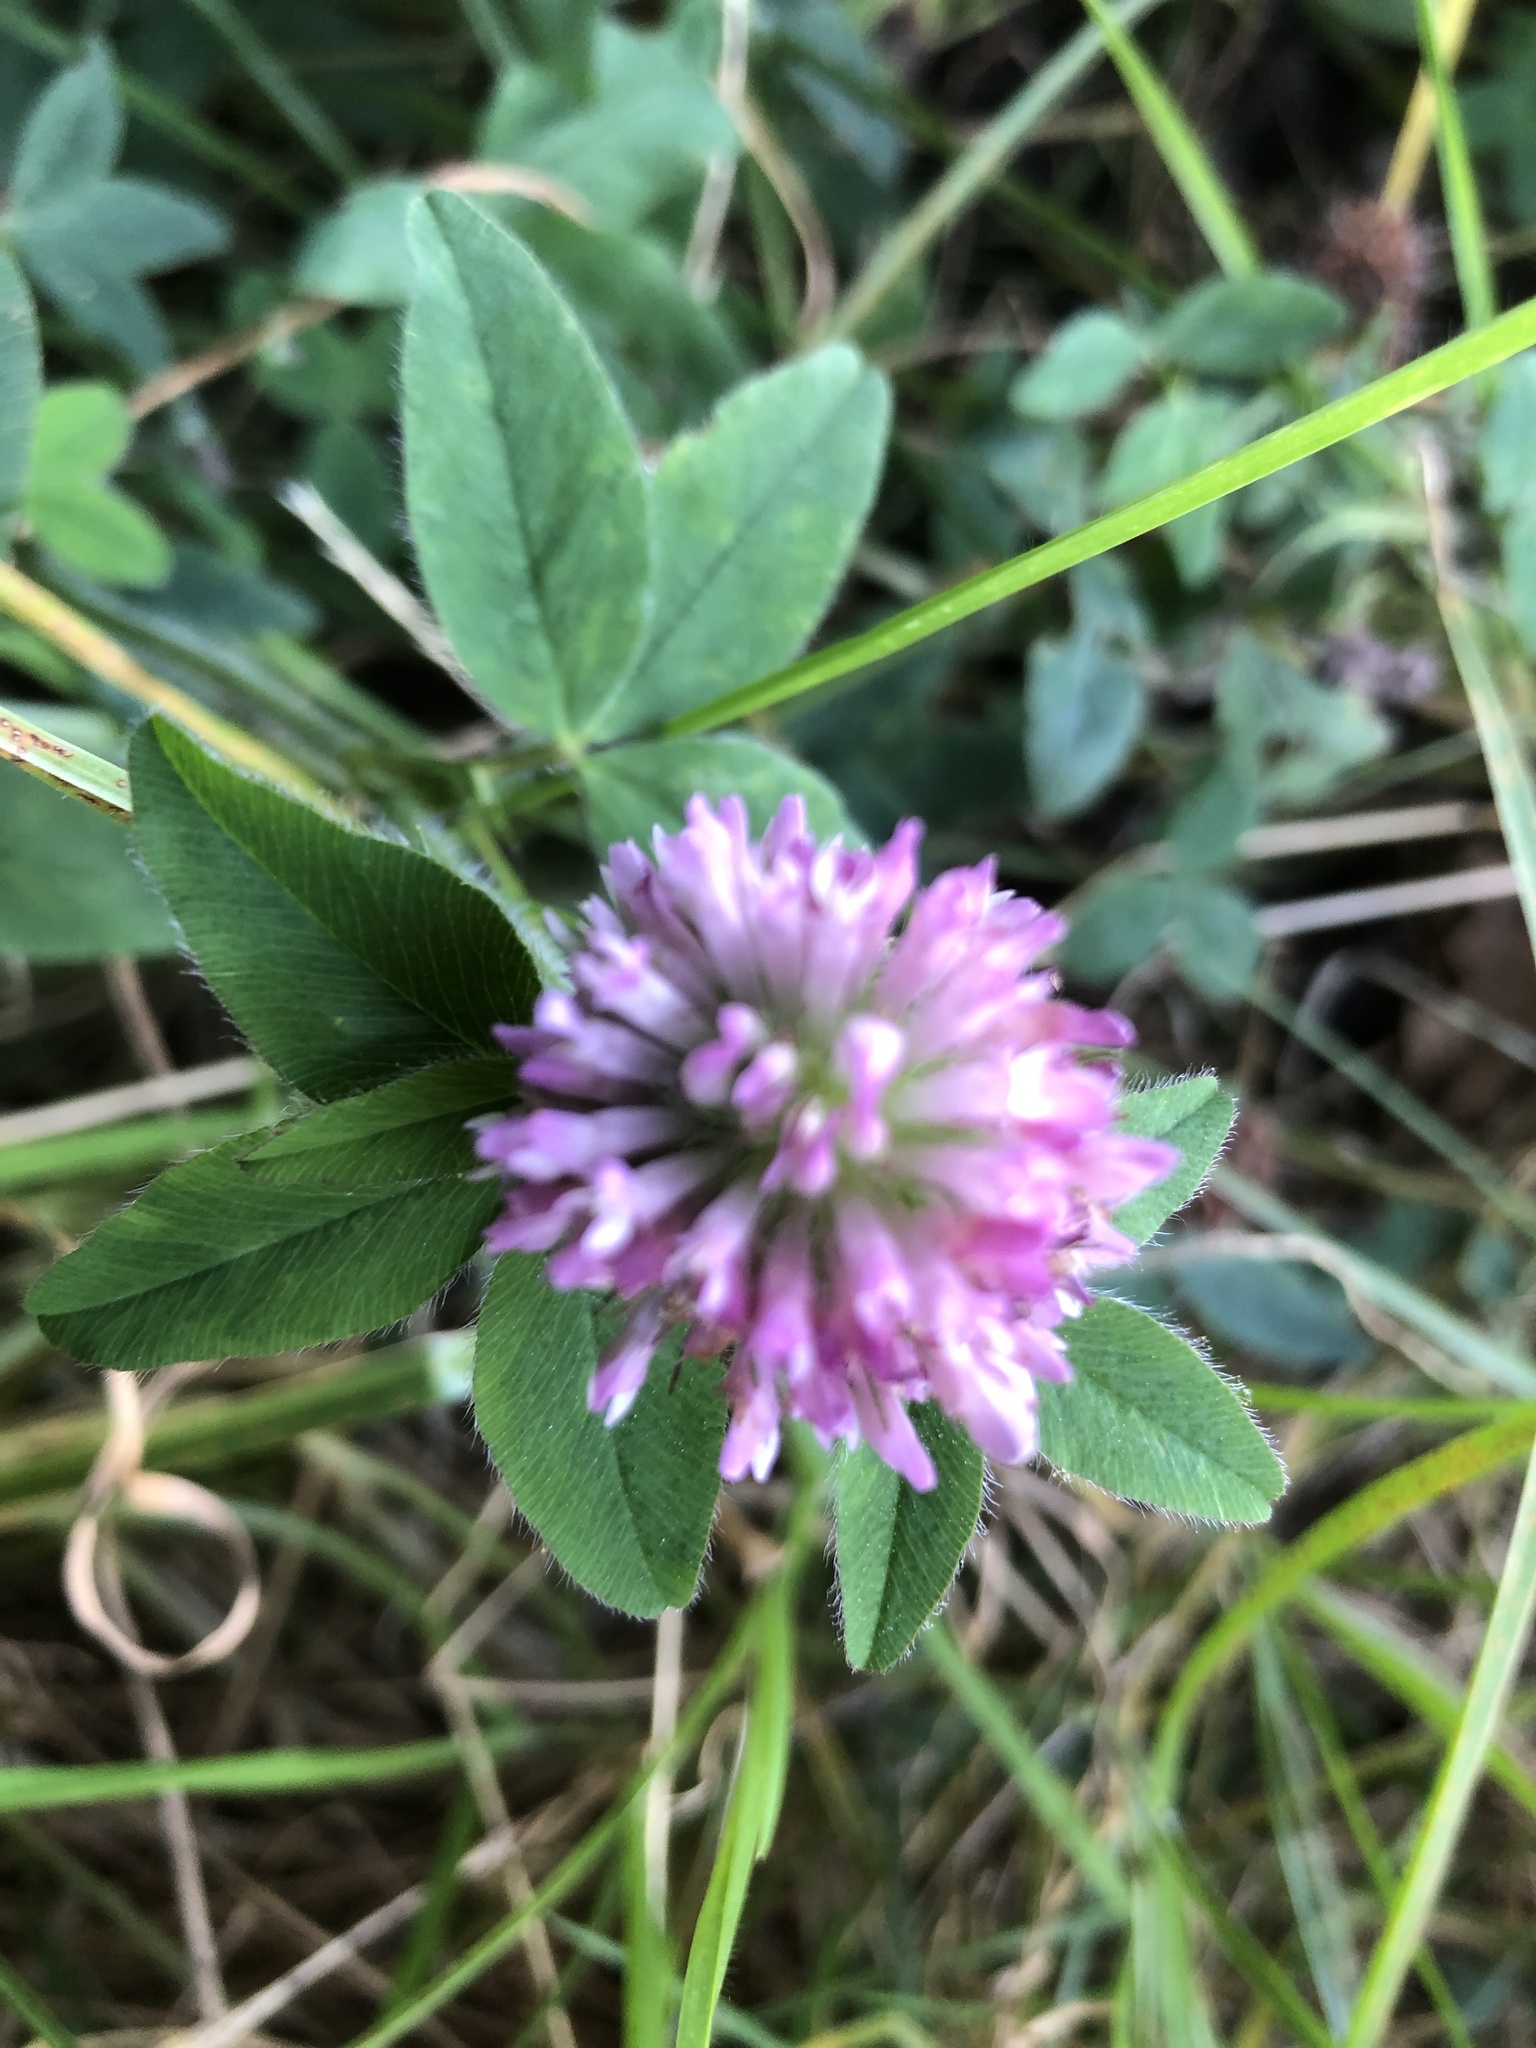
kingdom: Plantae
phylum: Tracheophyta
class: Magnoliopsida
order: Fabales
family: Fabaceae
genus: Trifolium
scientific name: Trifolium pratense
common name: Red clover
